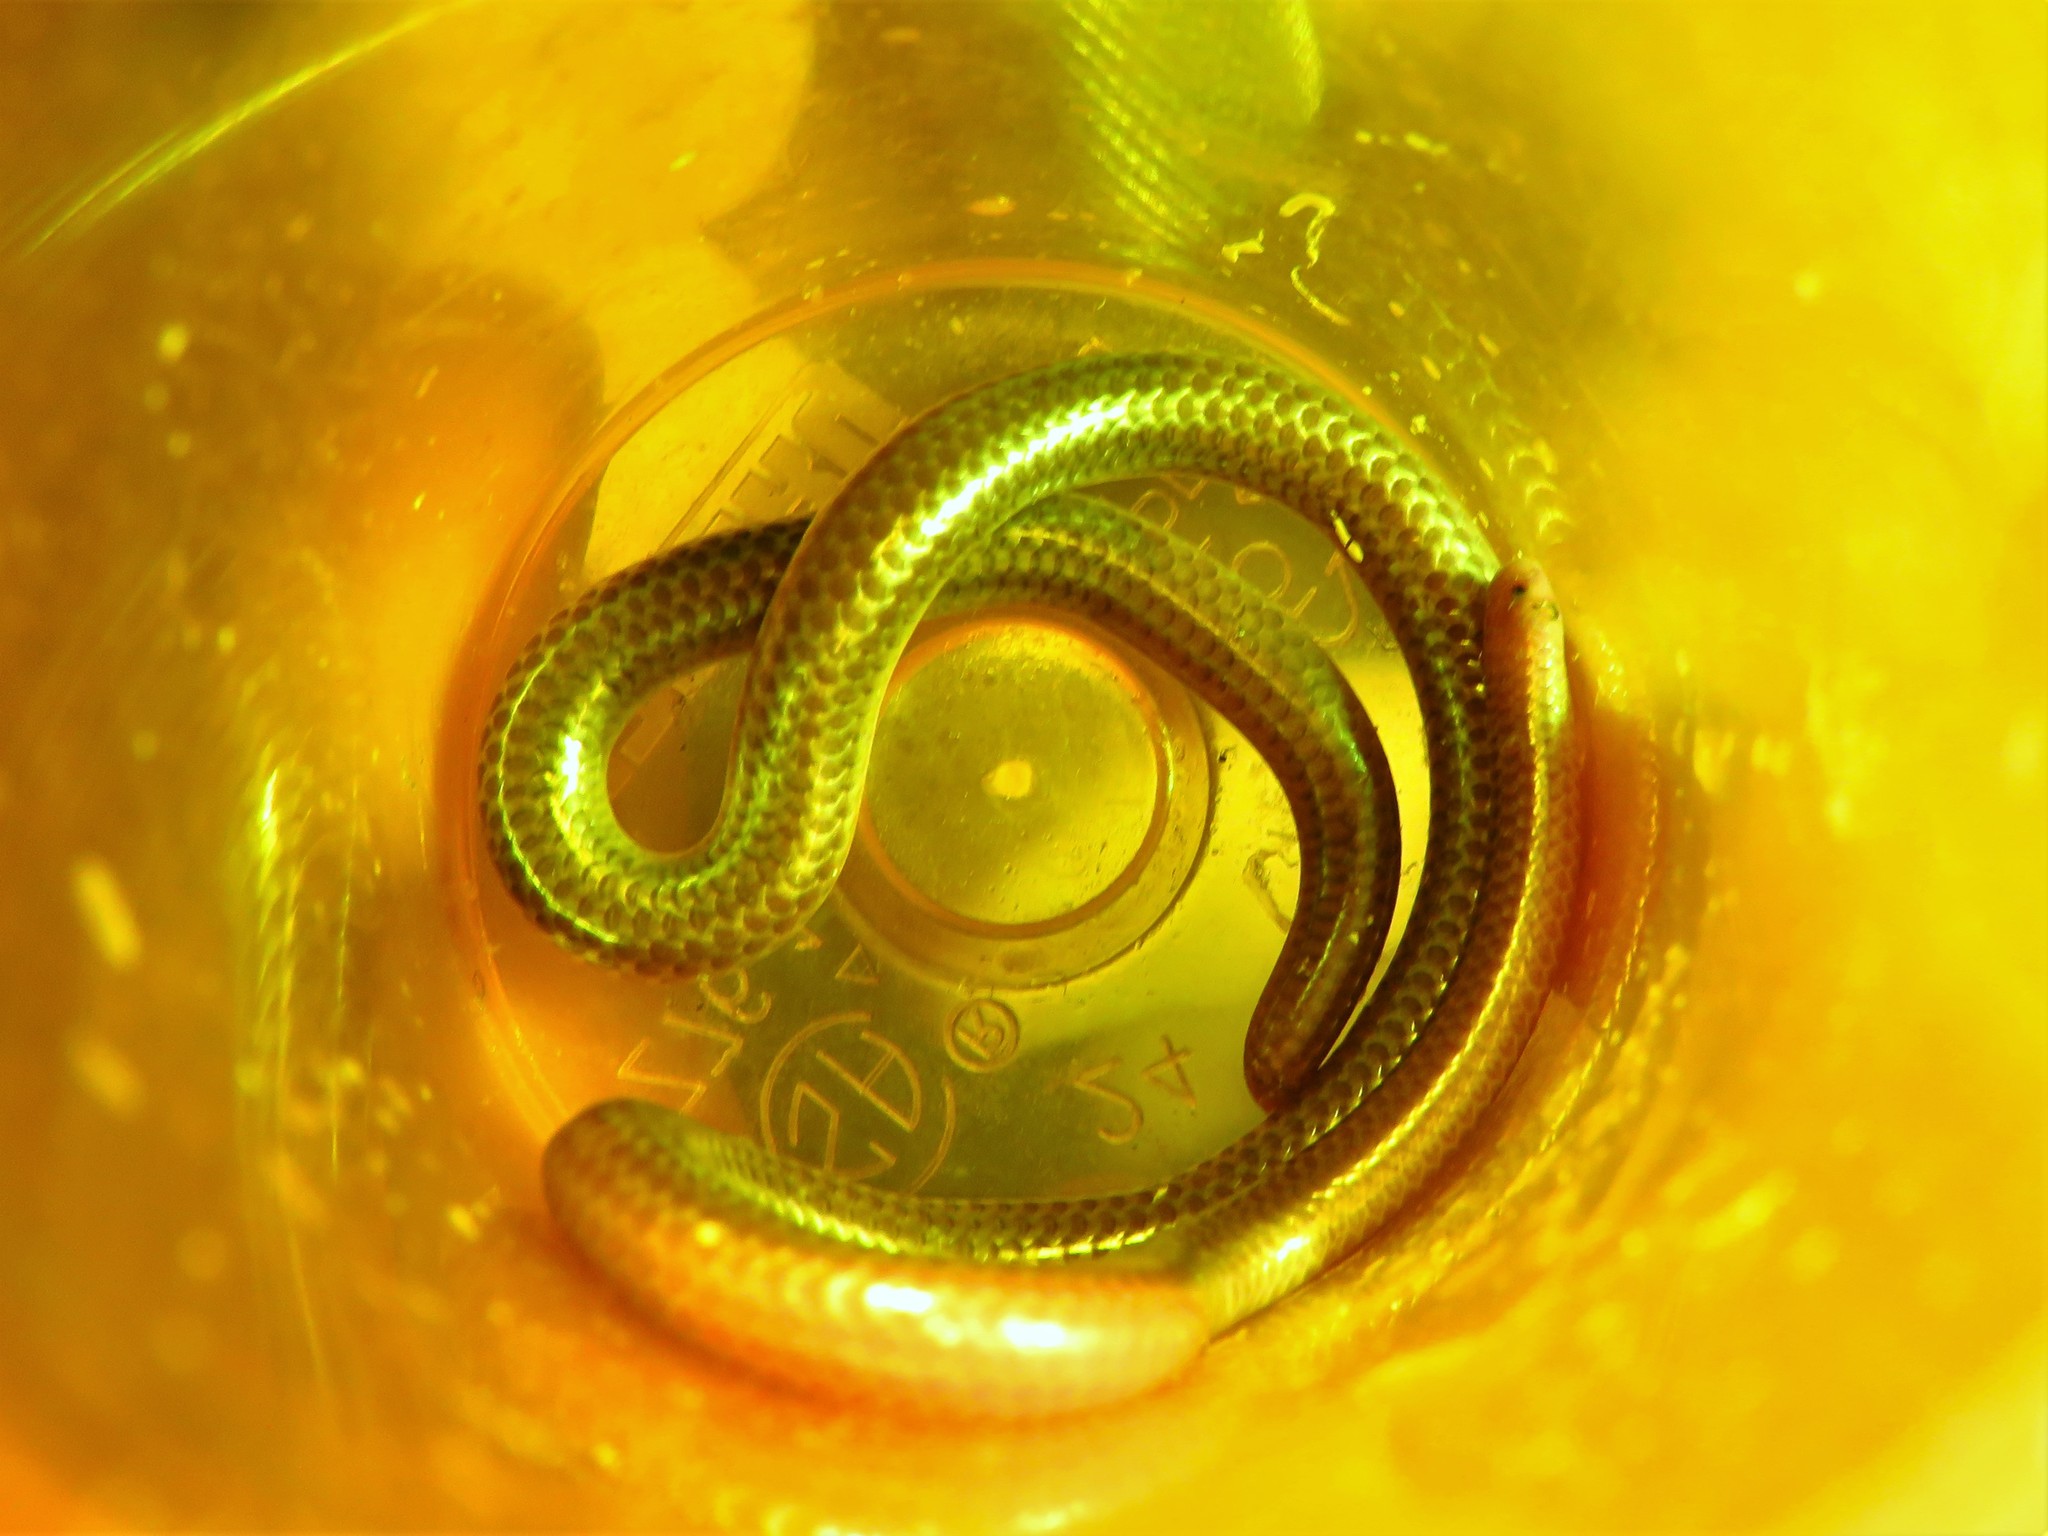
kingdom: Animalia
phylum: Chordata
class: Squamata
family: Leptotyphlopidae
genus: Rena
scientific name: Rena dulcis
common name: Texas blind snake
